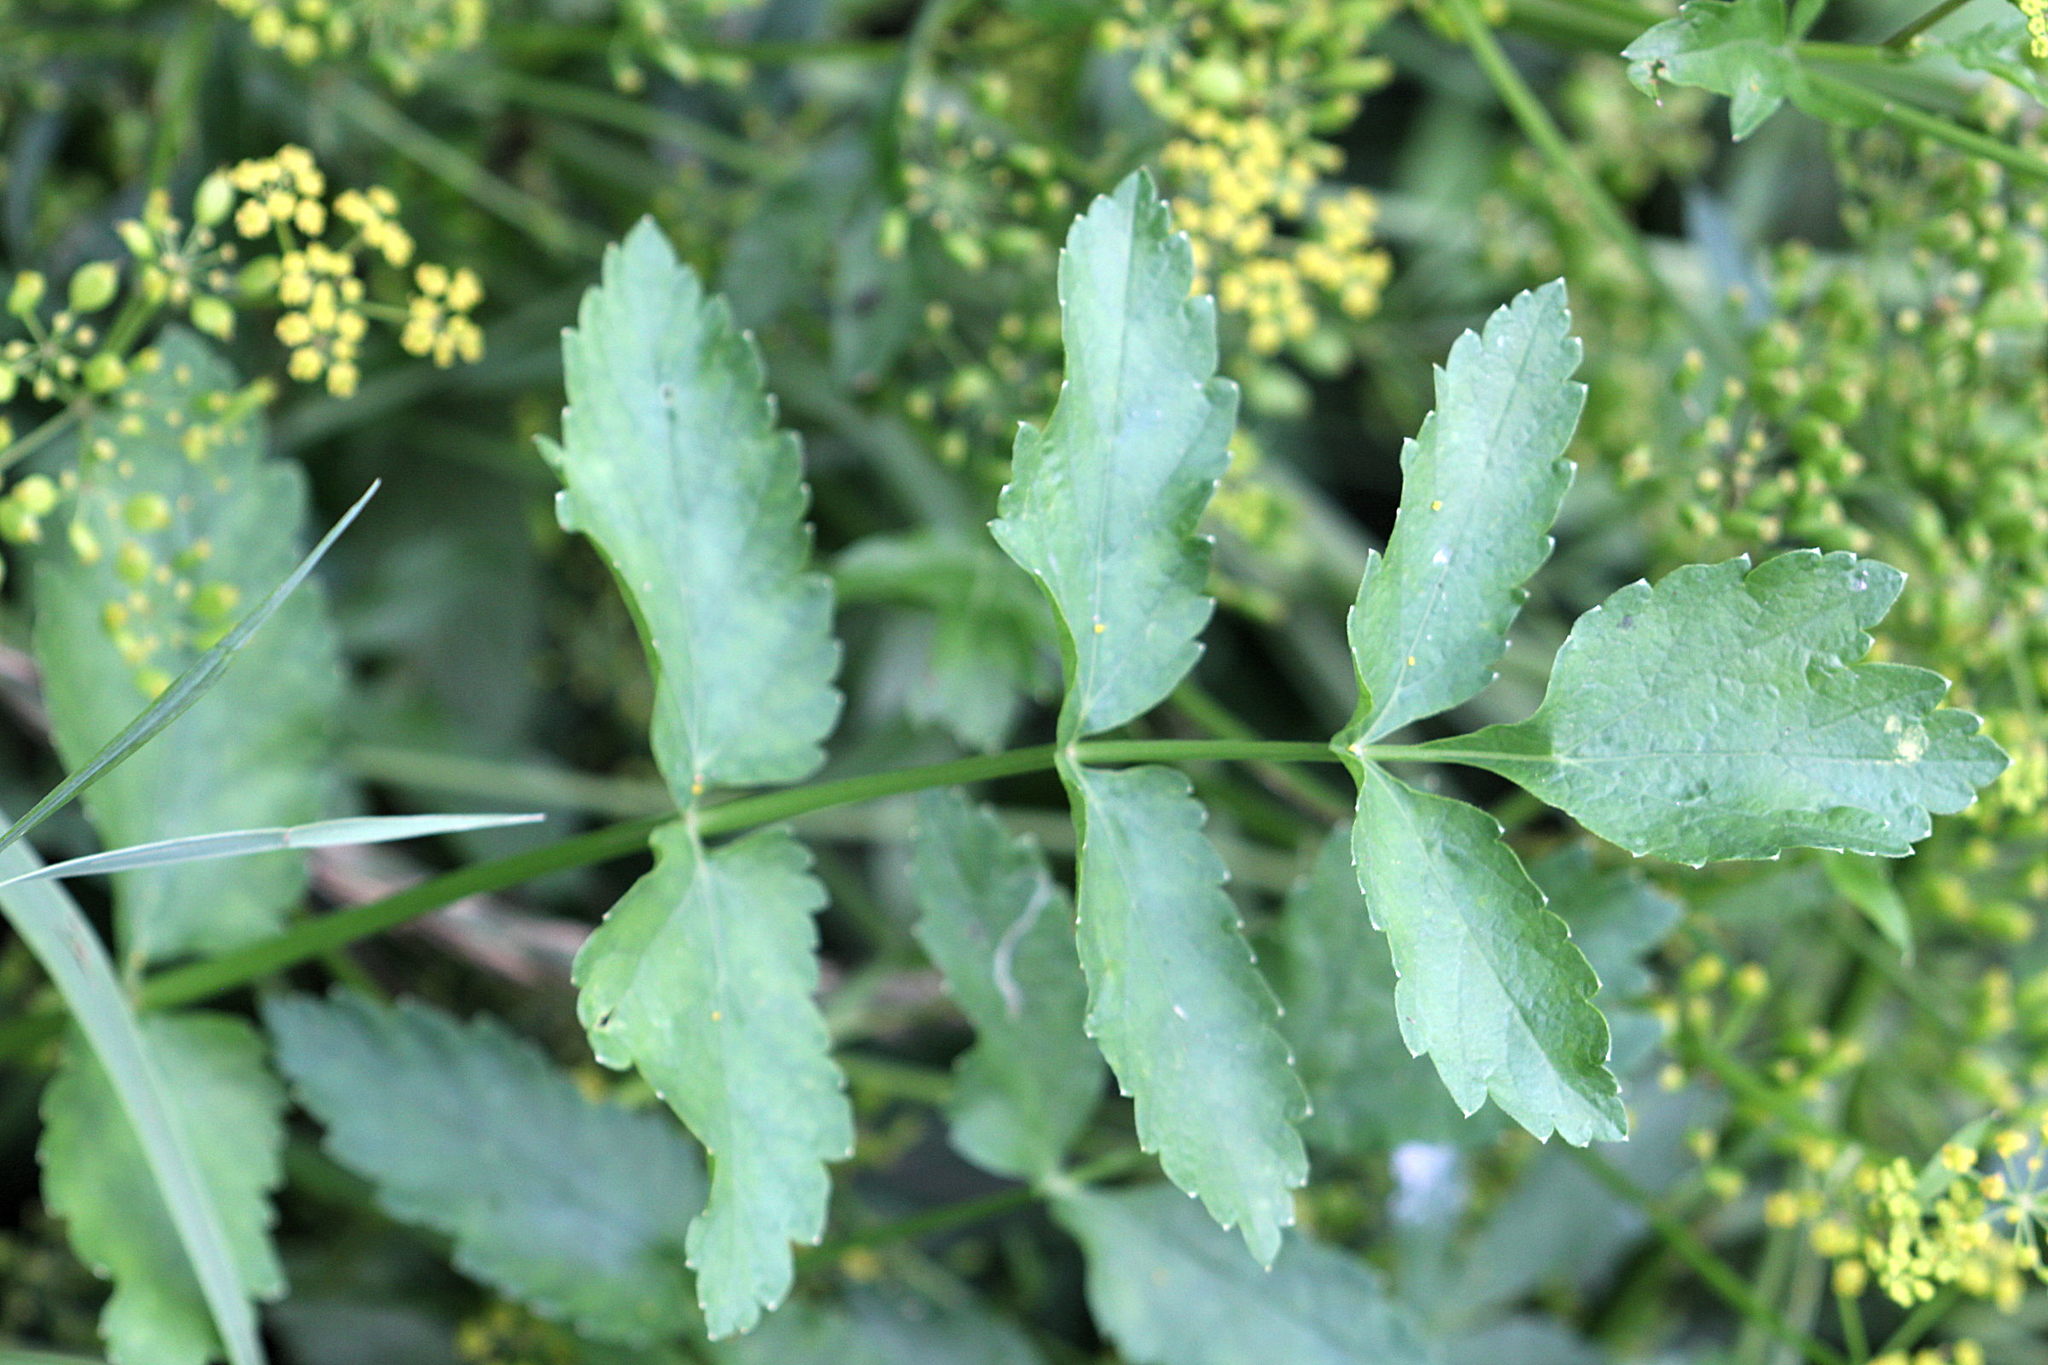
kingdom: Plantae
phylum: Tracheophyta
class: Magnoliopsida
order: Apiales
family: Apiaceae
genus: Pastinaca
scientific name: Pastinaca sativa
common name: Wild parsnip
